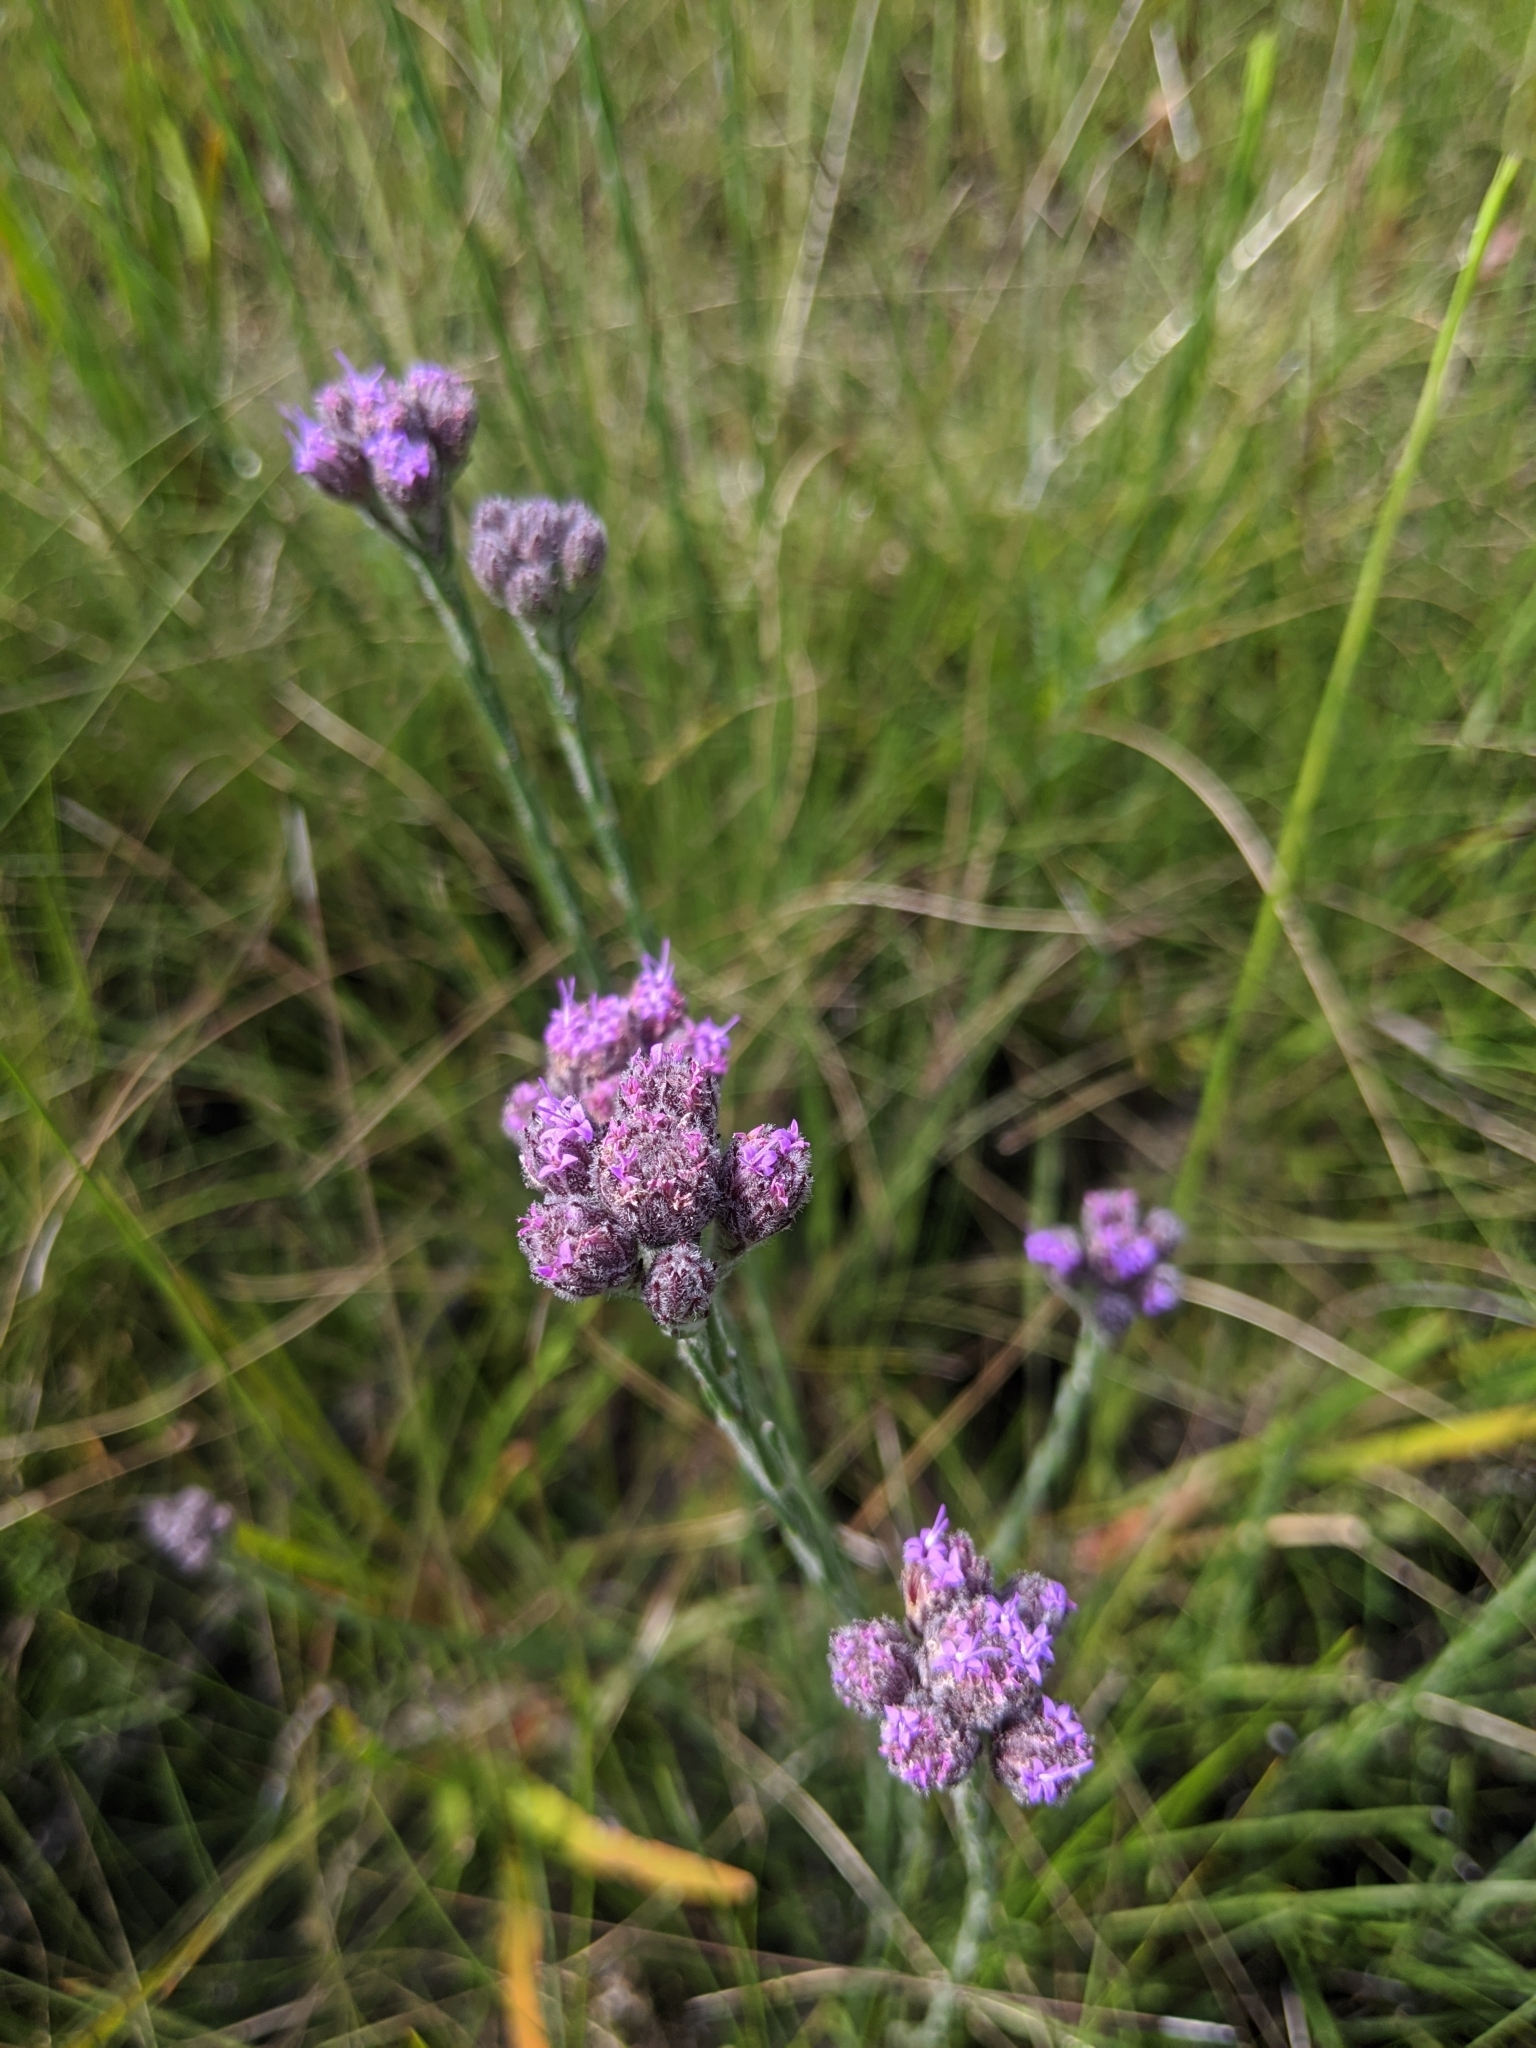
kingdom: Plantae
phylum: Tracheophyta
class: Magnoliopsida
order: Asterales
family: Asteraceae
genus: Carphephorus
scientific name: Carphephorus pseudoliatris
